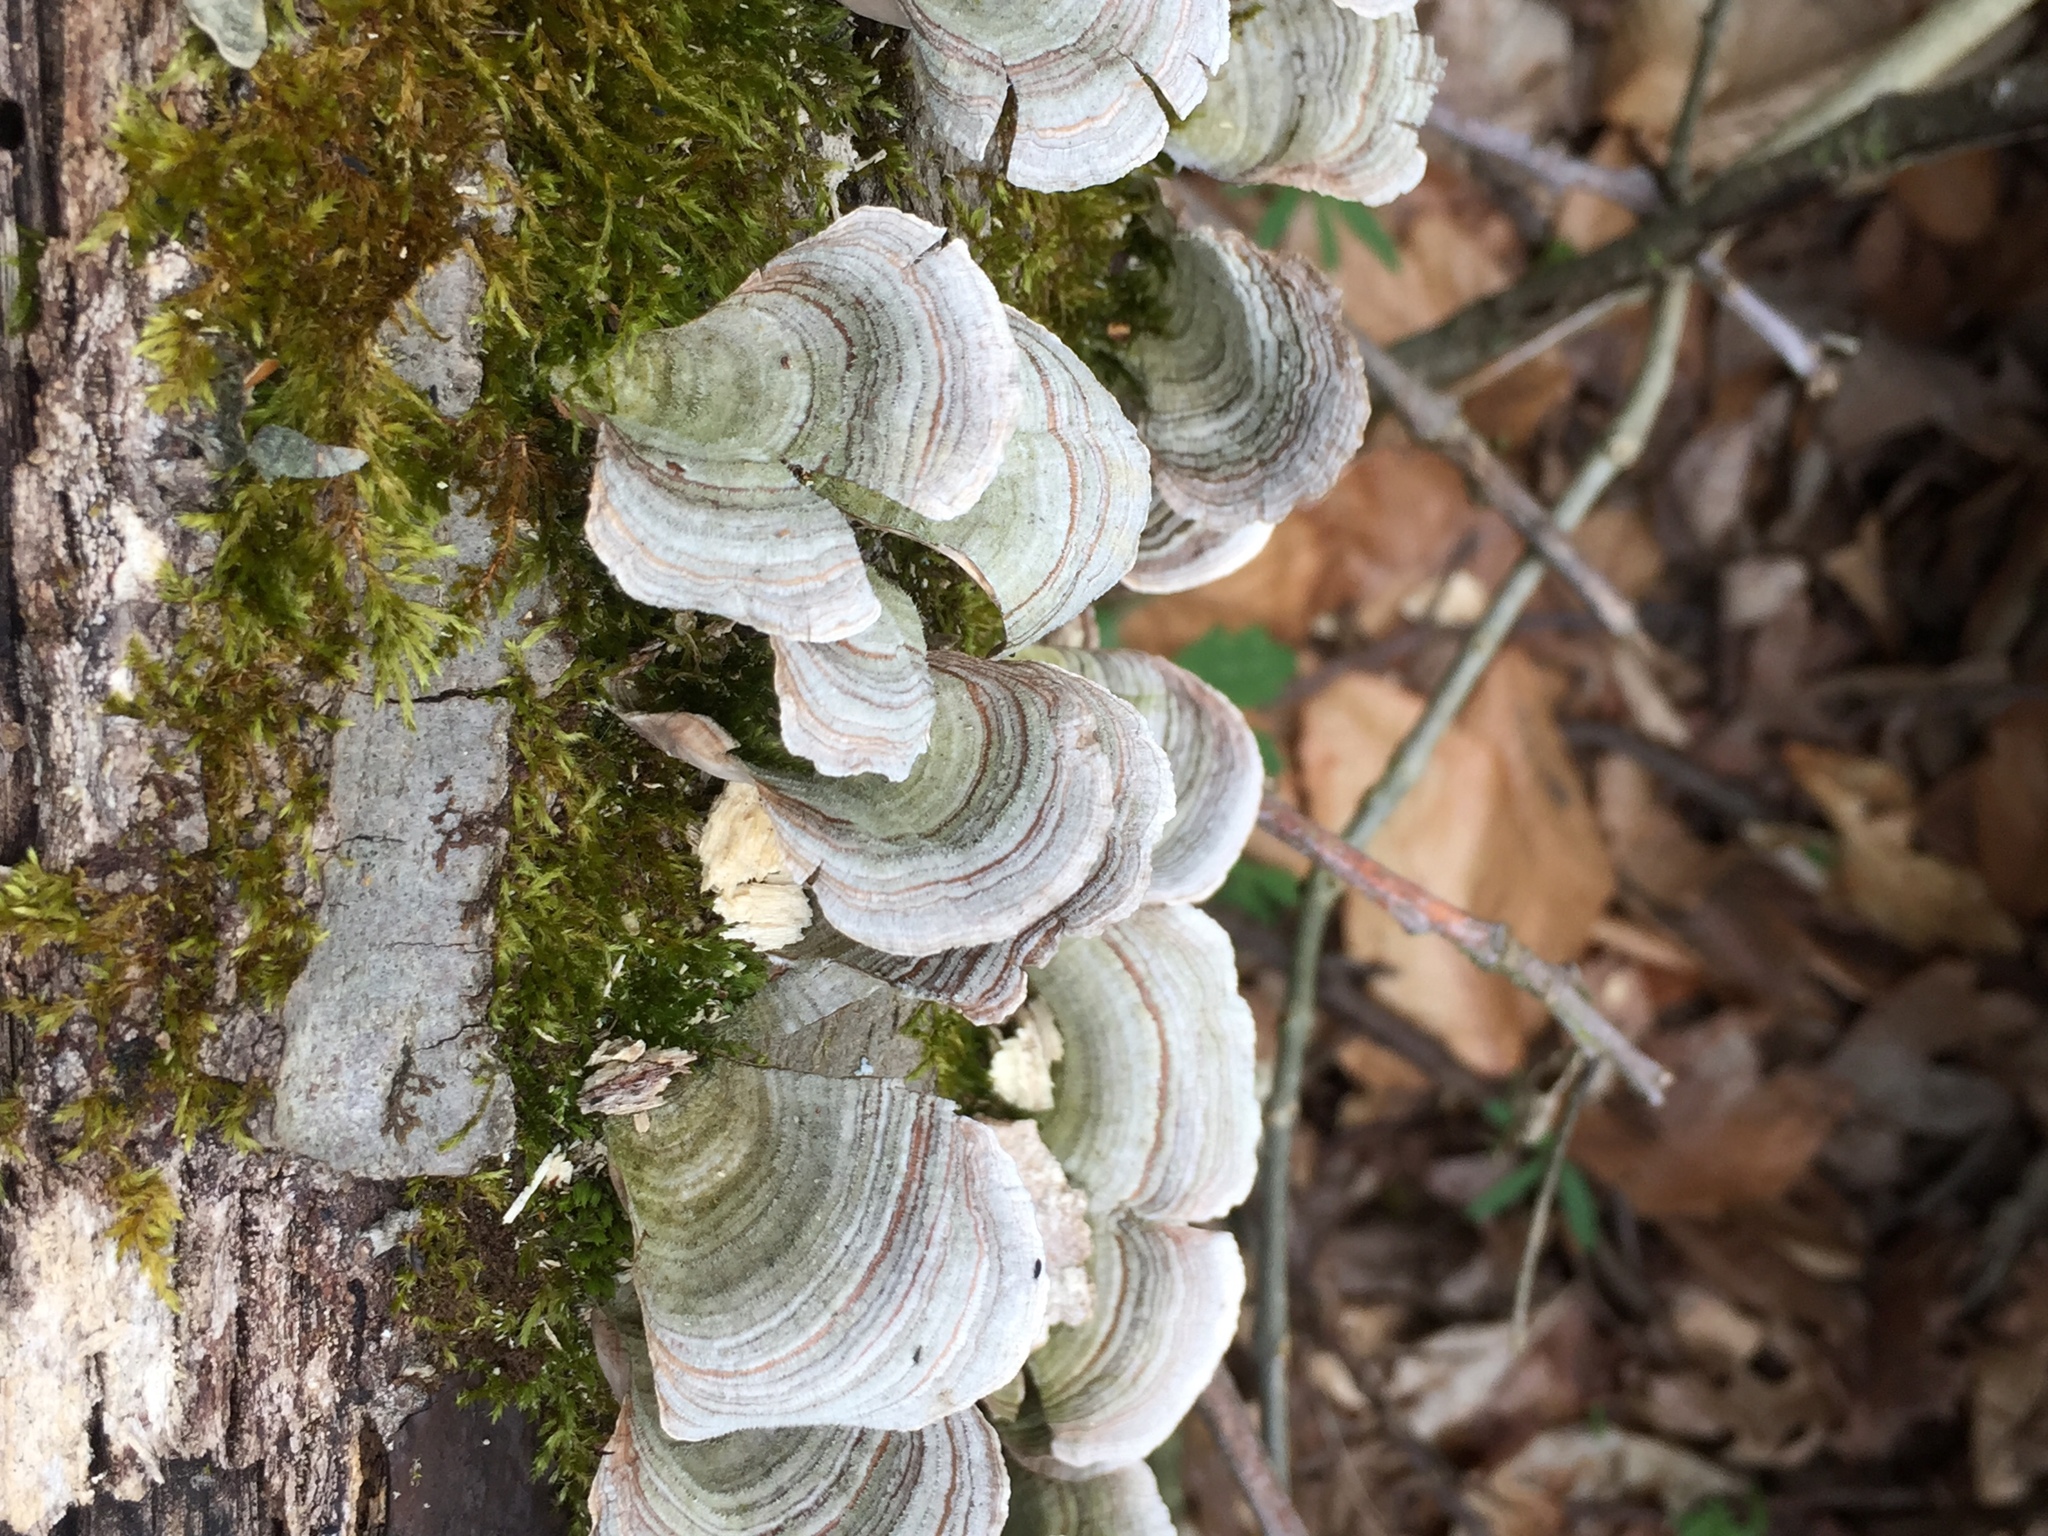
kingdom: Fungi
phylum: Basidiomycota
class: Agaricomycetes
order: Russulales
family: Stereaceae
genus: Stereum
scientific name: Stereum ostrea
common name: False turkeytail
